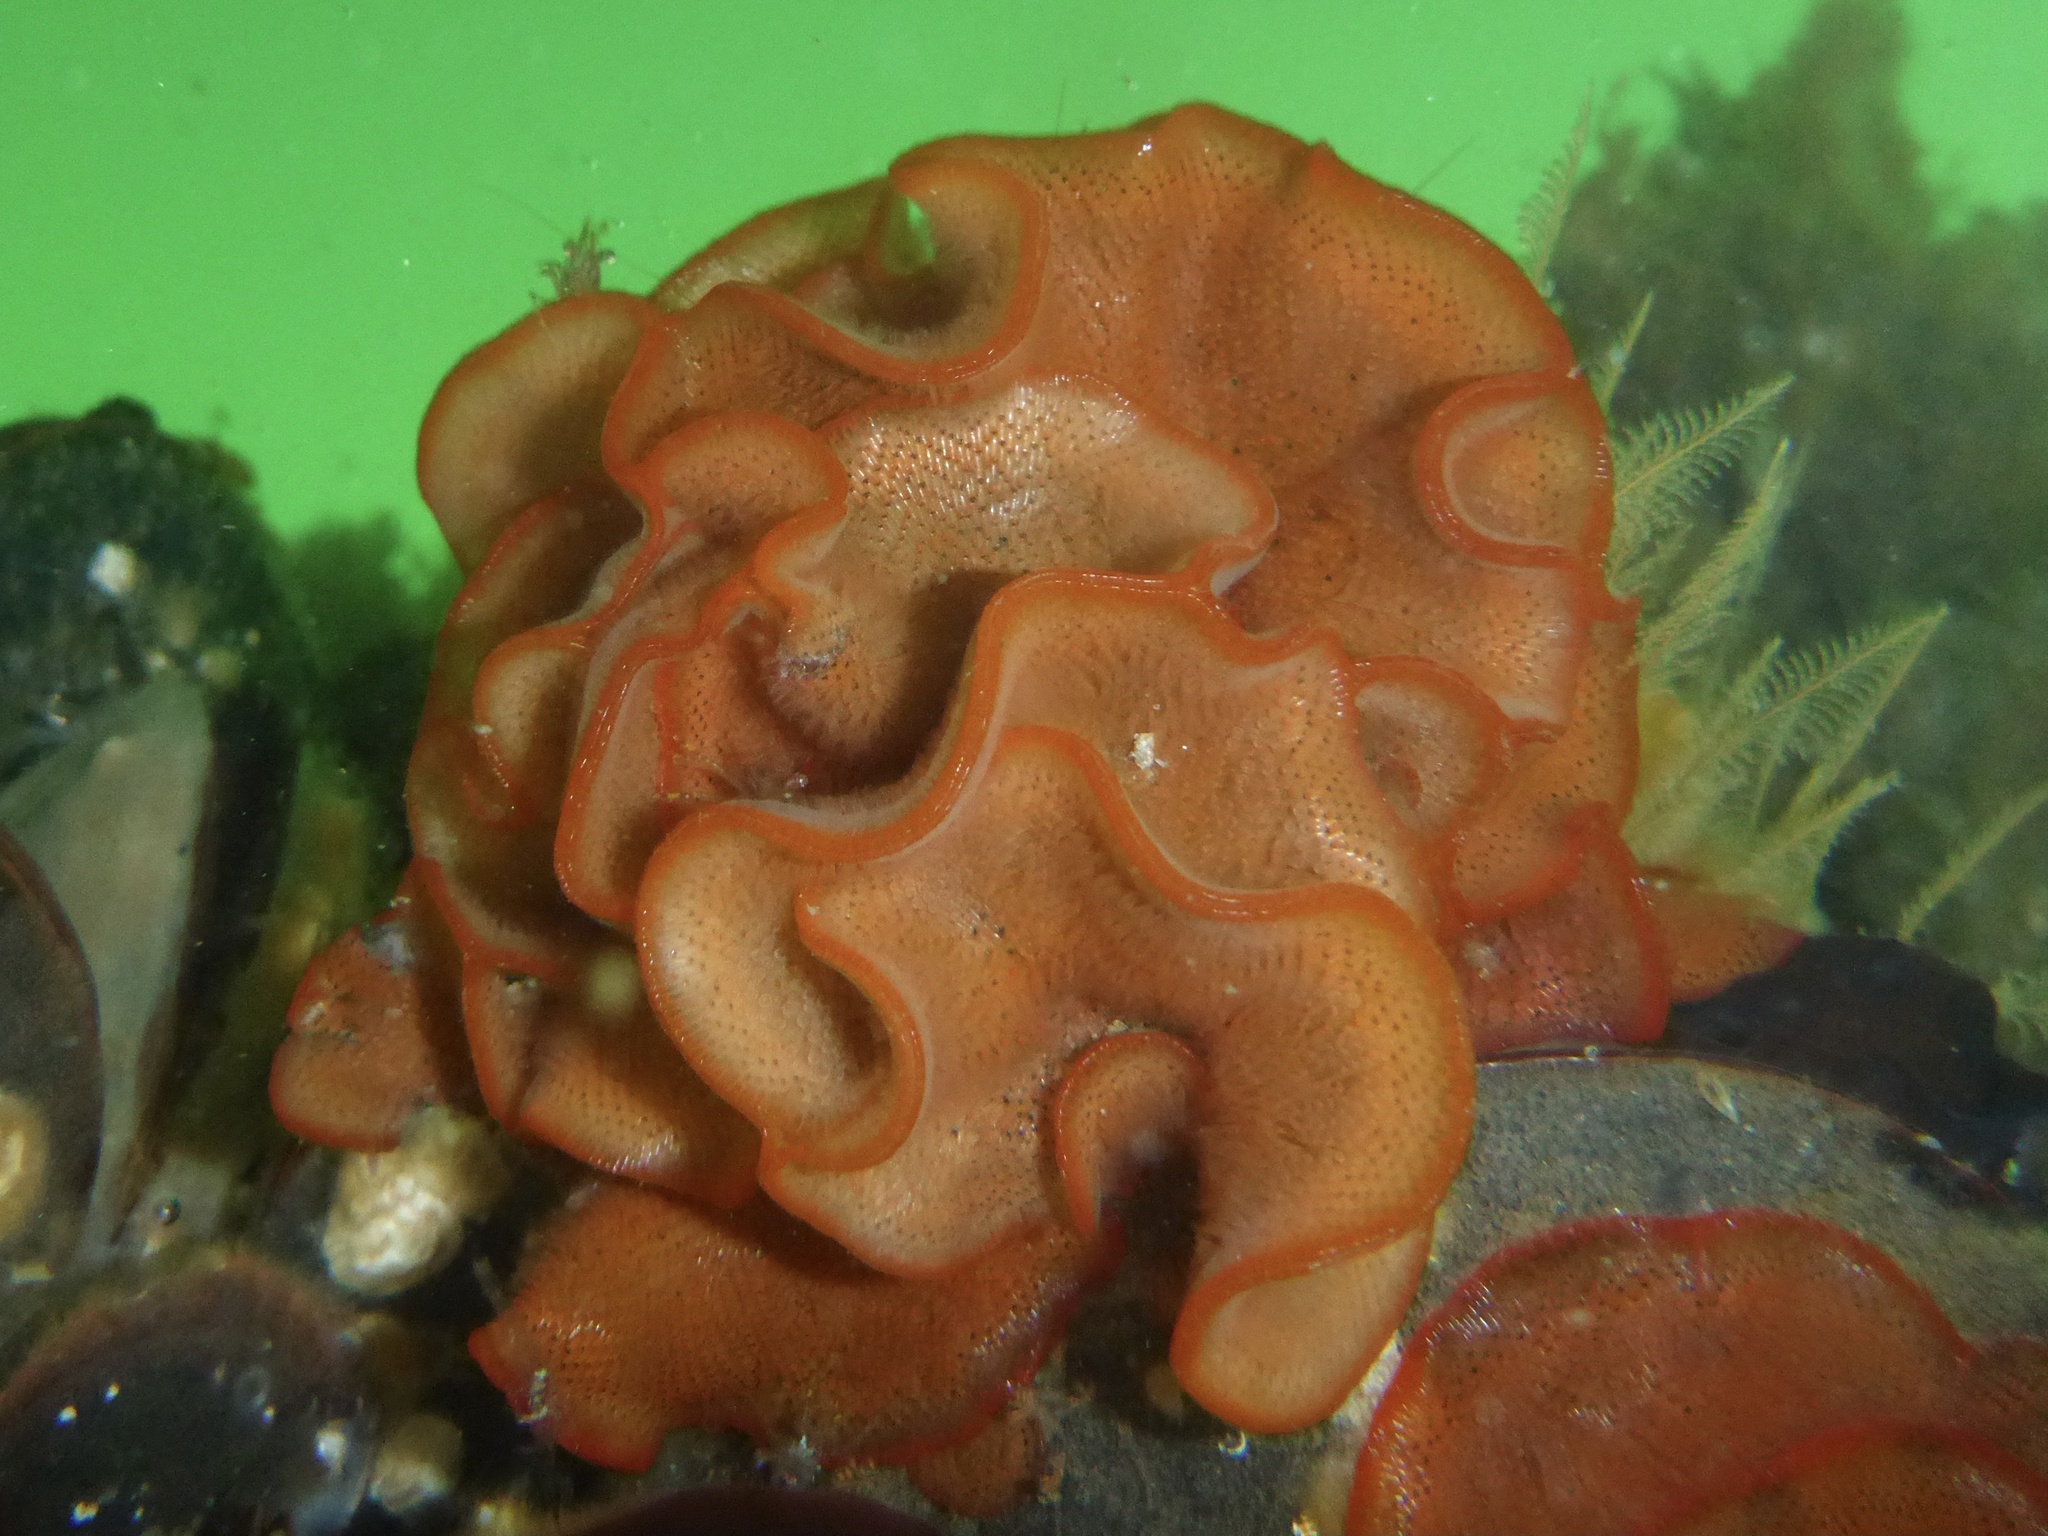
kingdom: Animalia
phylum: Bryozoa
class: Gymnolaemata
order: Cheilostomatida
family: Watersiporidae
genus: Watersipora
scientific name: Watersipora subtorquata
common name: Bryozoan
